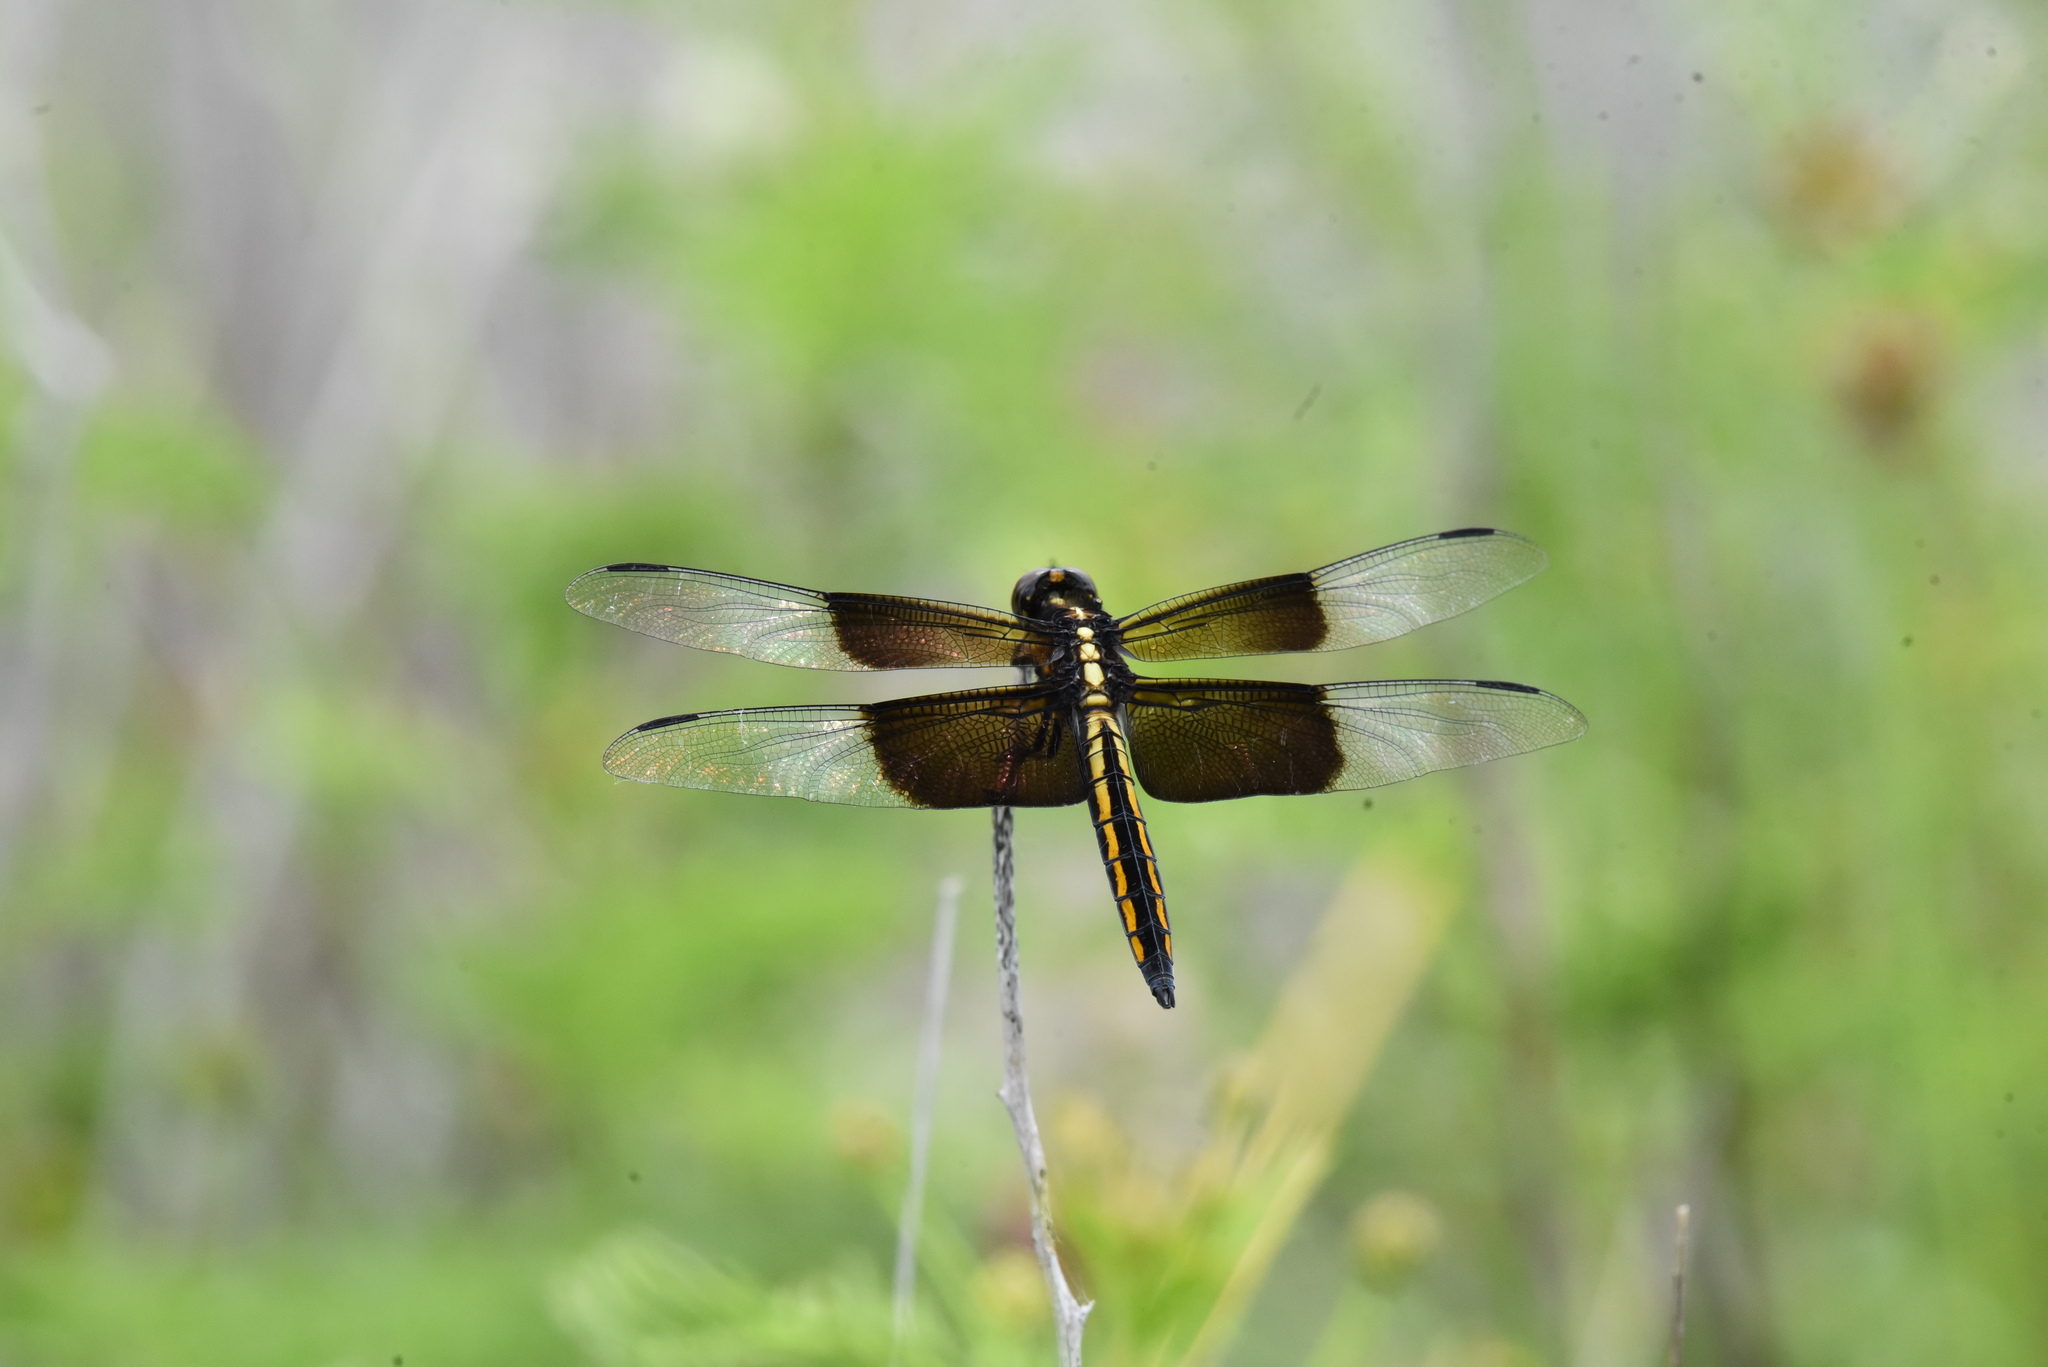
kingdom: Animalia
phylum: Arthropoda
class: Insecta
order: Odonata
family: Libellulidae
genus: Libellula
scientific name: Libellula luctuosa
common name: Widow skimmer
